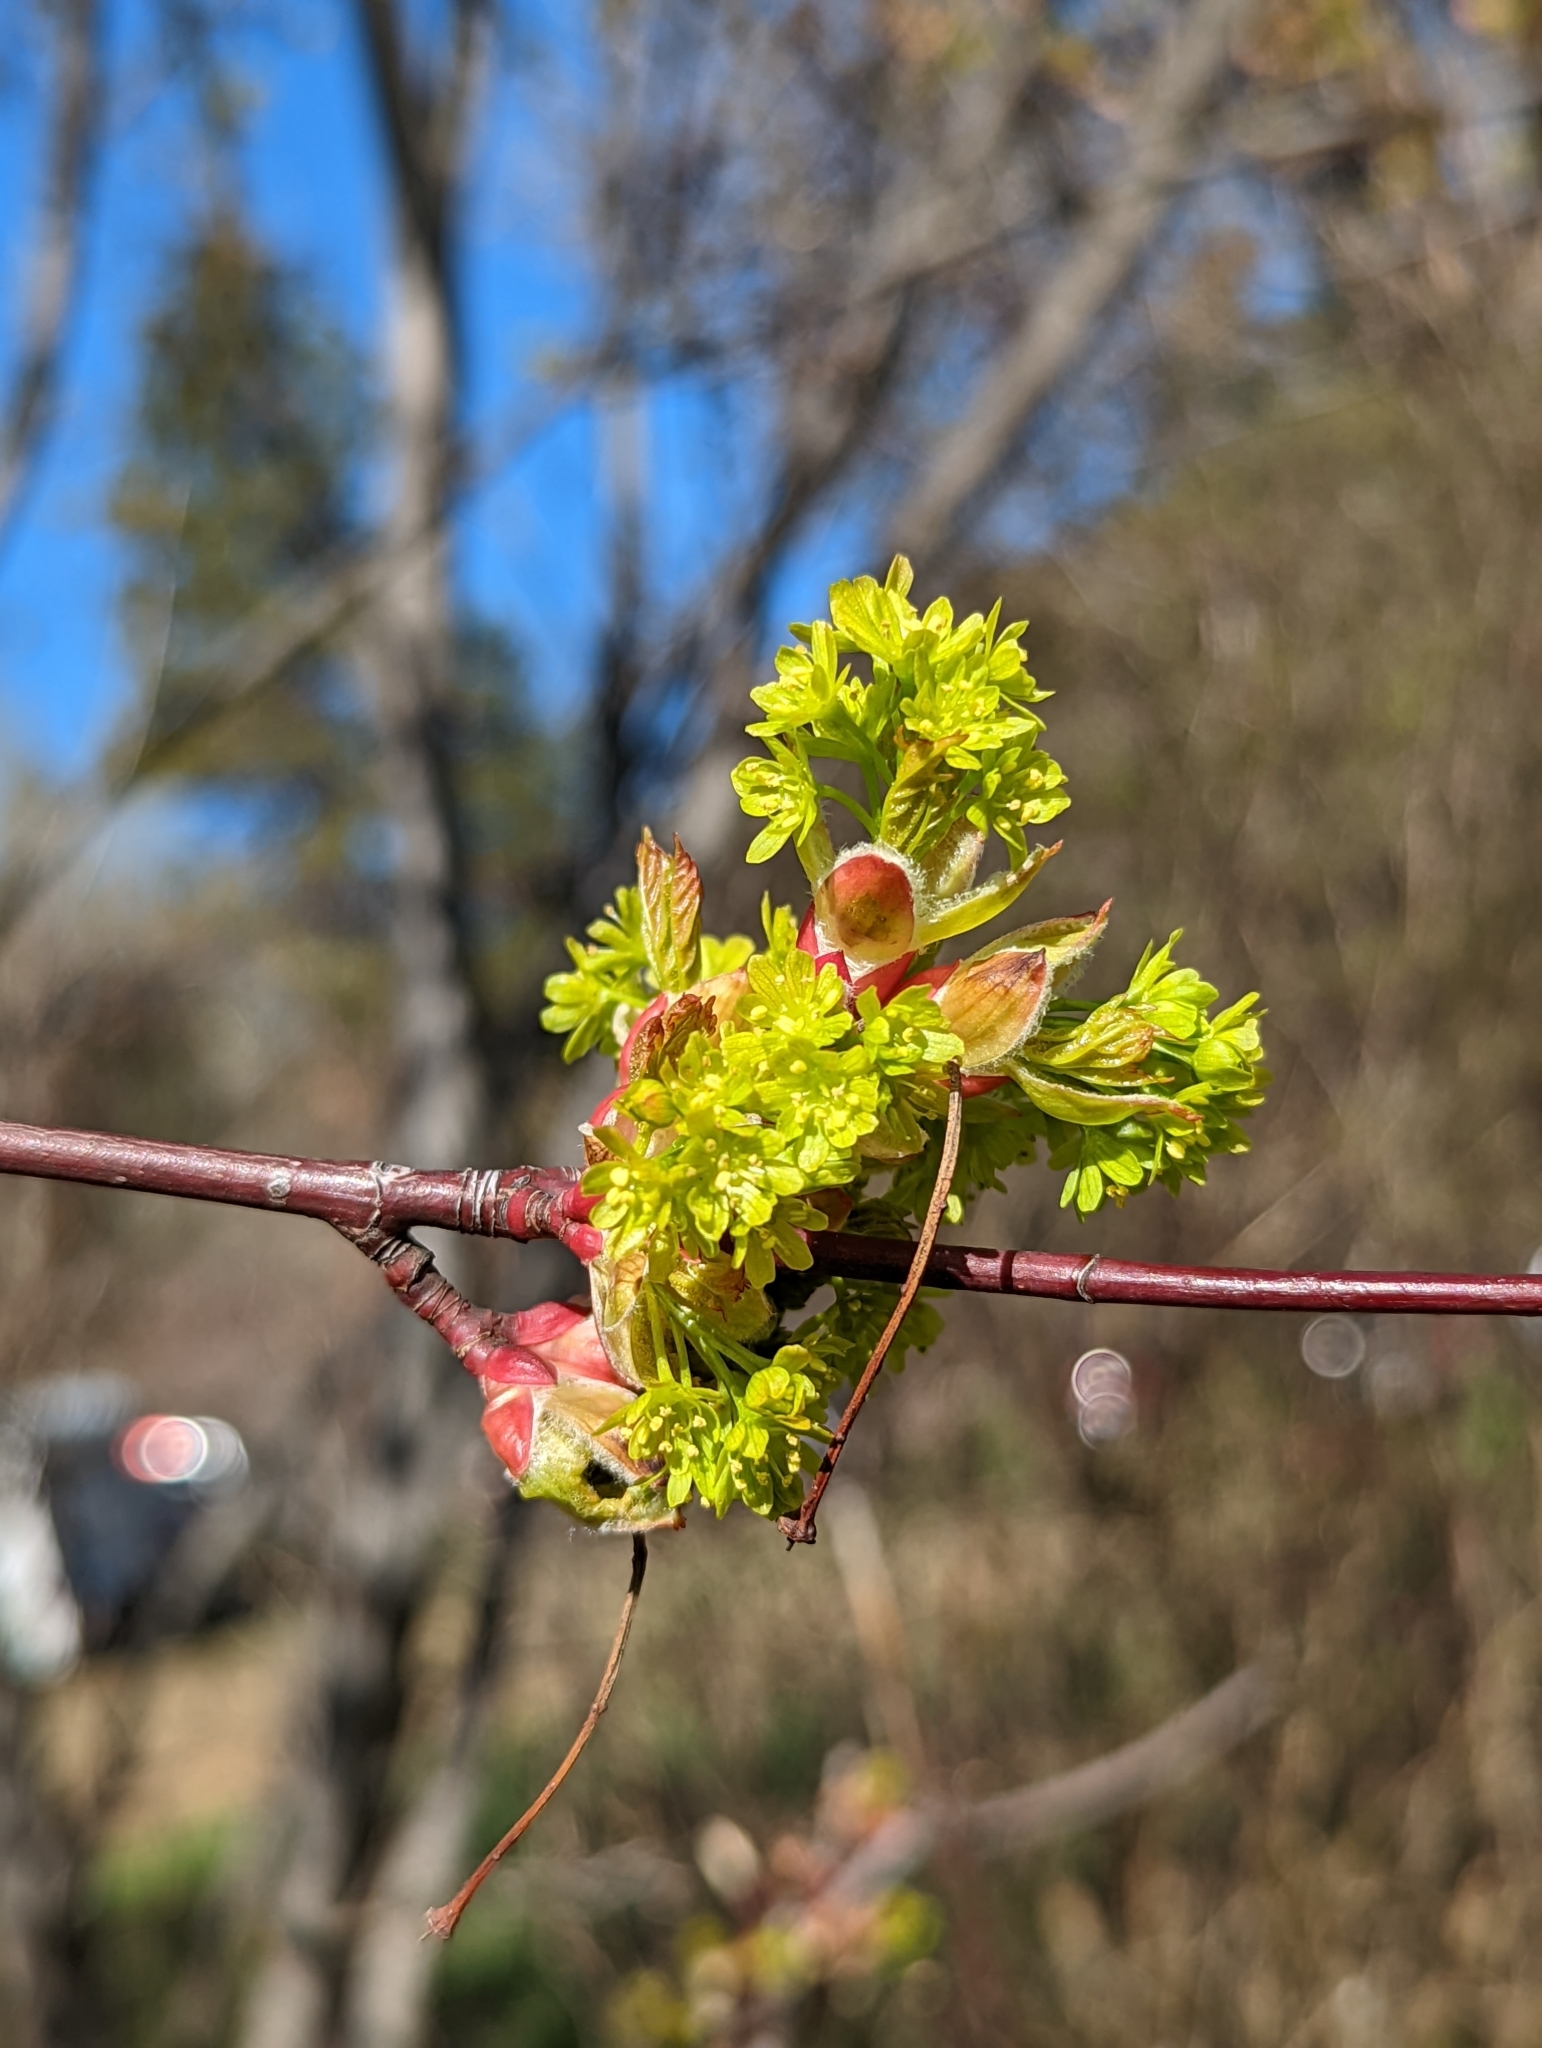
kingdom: Plantae
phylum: Tracheophyta
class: Magnoliopsida
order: Sapindales
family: Sapindaceae
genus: Acer
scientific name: Acer glabrum
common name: Rocky mountain maple
